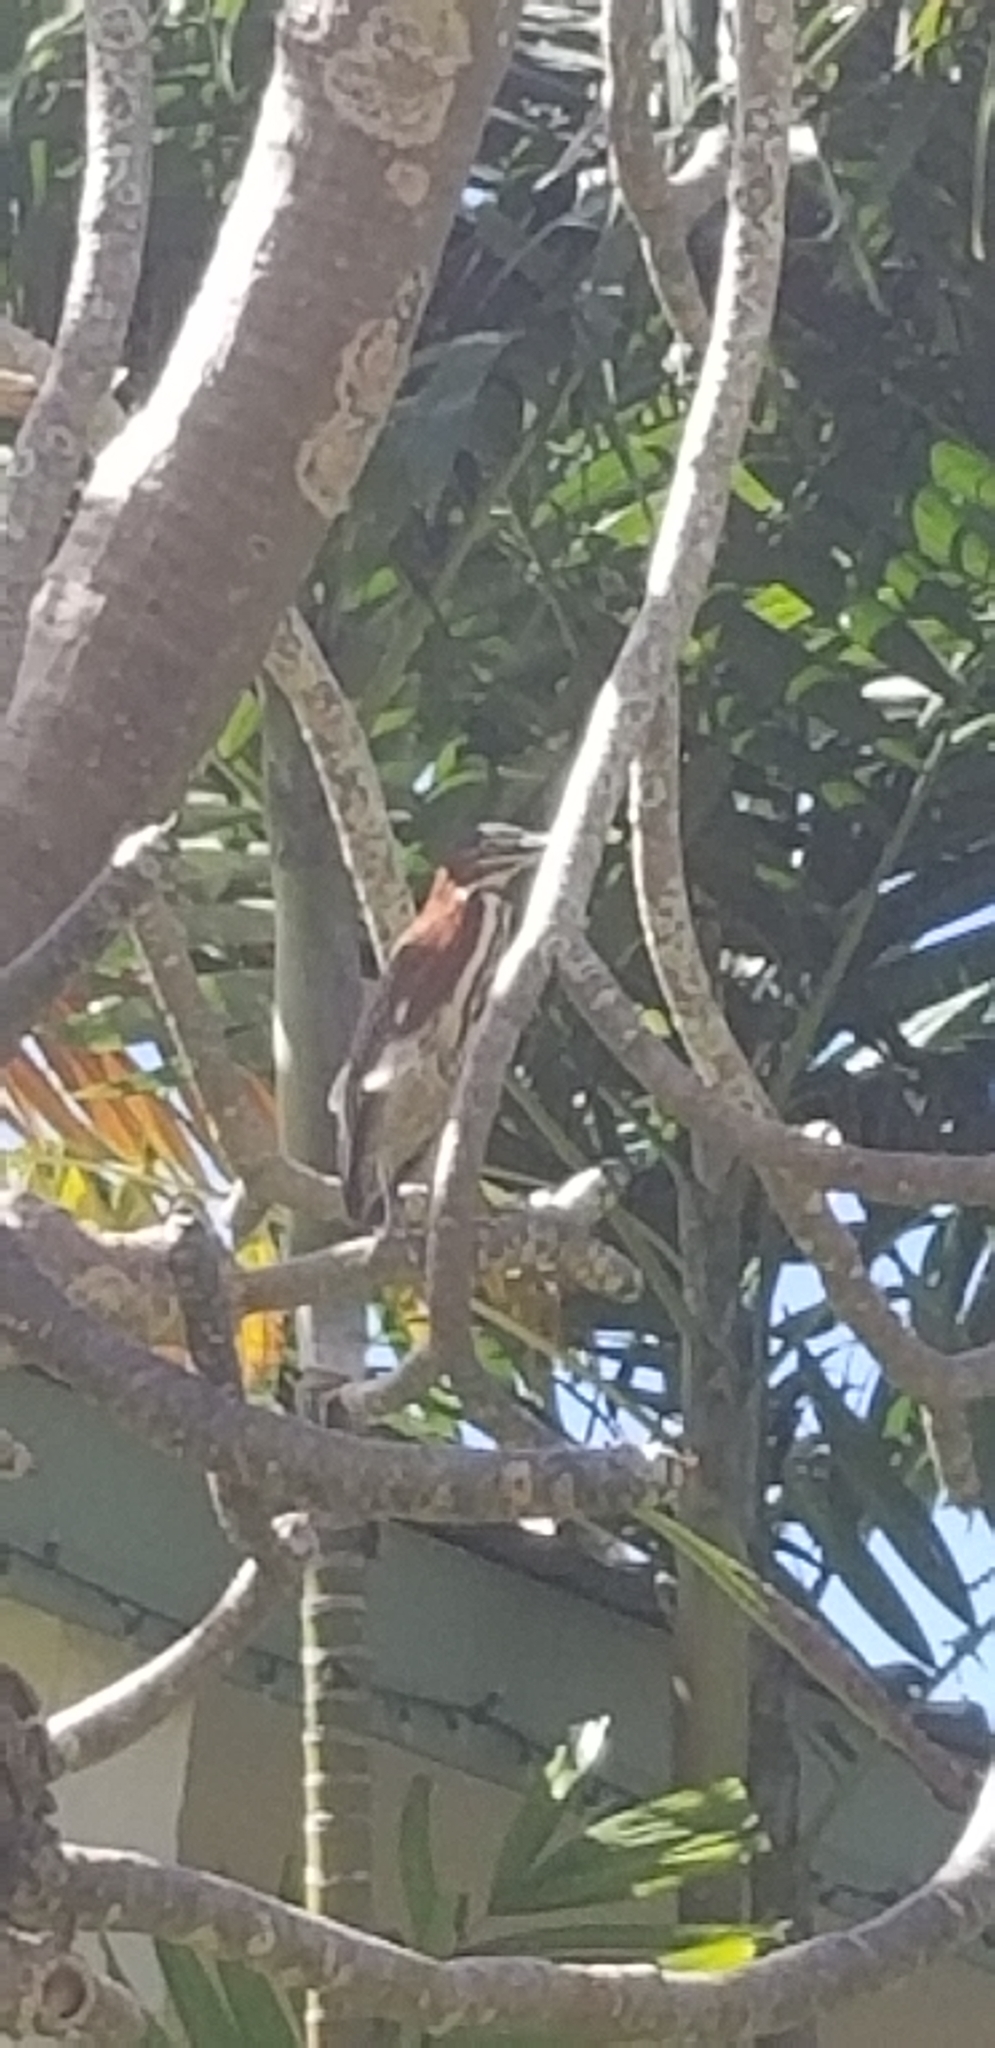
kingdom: Animalia
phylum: Chordata
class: Aves
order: Pelecaniformes
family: Ardeidae
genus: Butorides
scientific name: Butorides virescens
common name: Green heron
